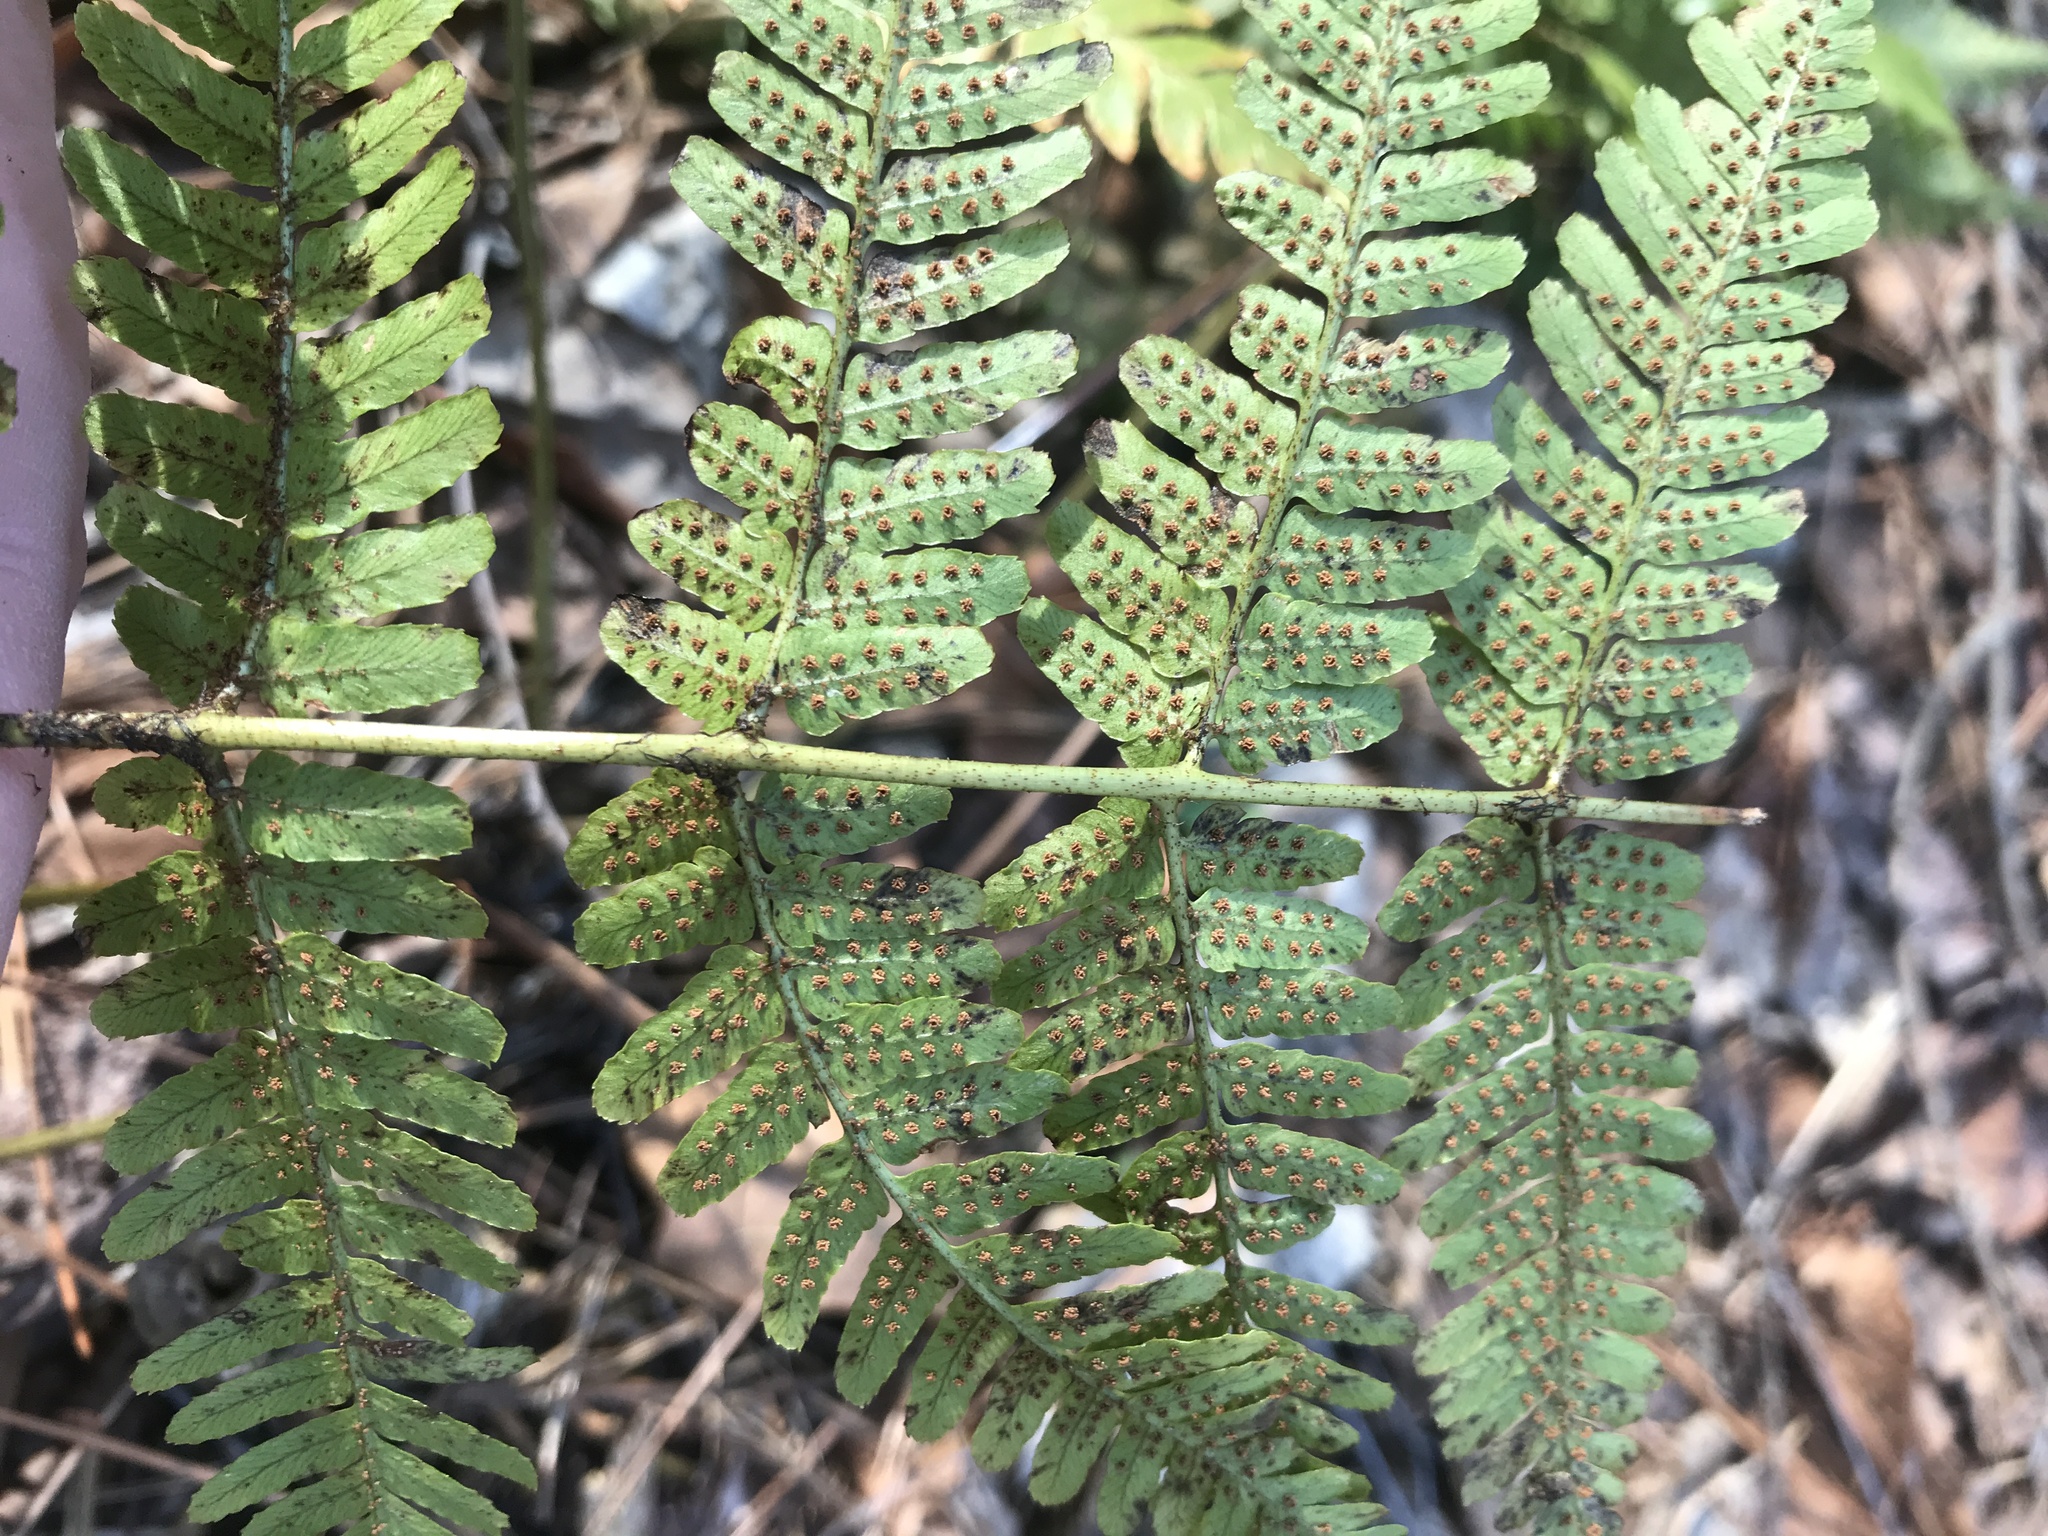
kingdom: Plantae
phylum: Tracheophyta
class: Polypodiopsida
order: Polypodiales
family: Dryopteridaceae
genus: Dryopteris
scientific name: Dryopteris erythrosora
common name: Autumn fern
